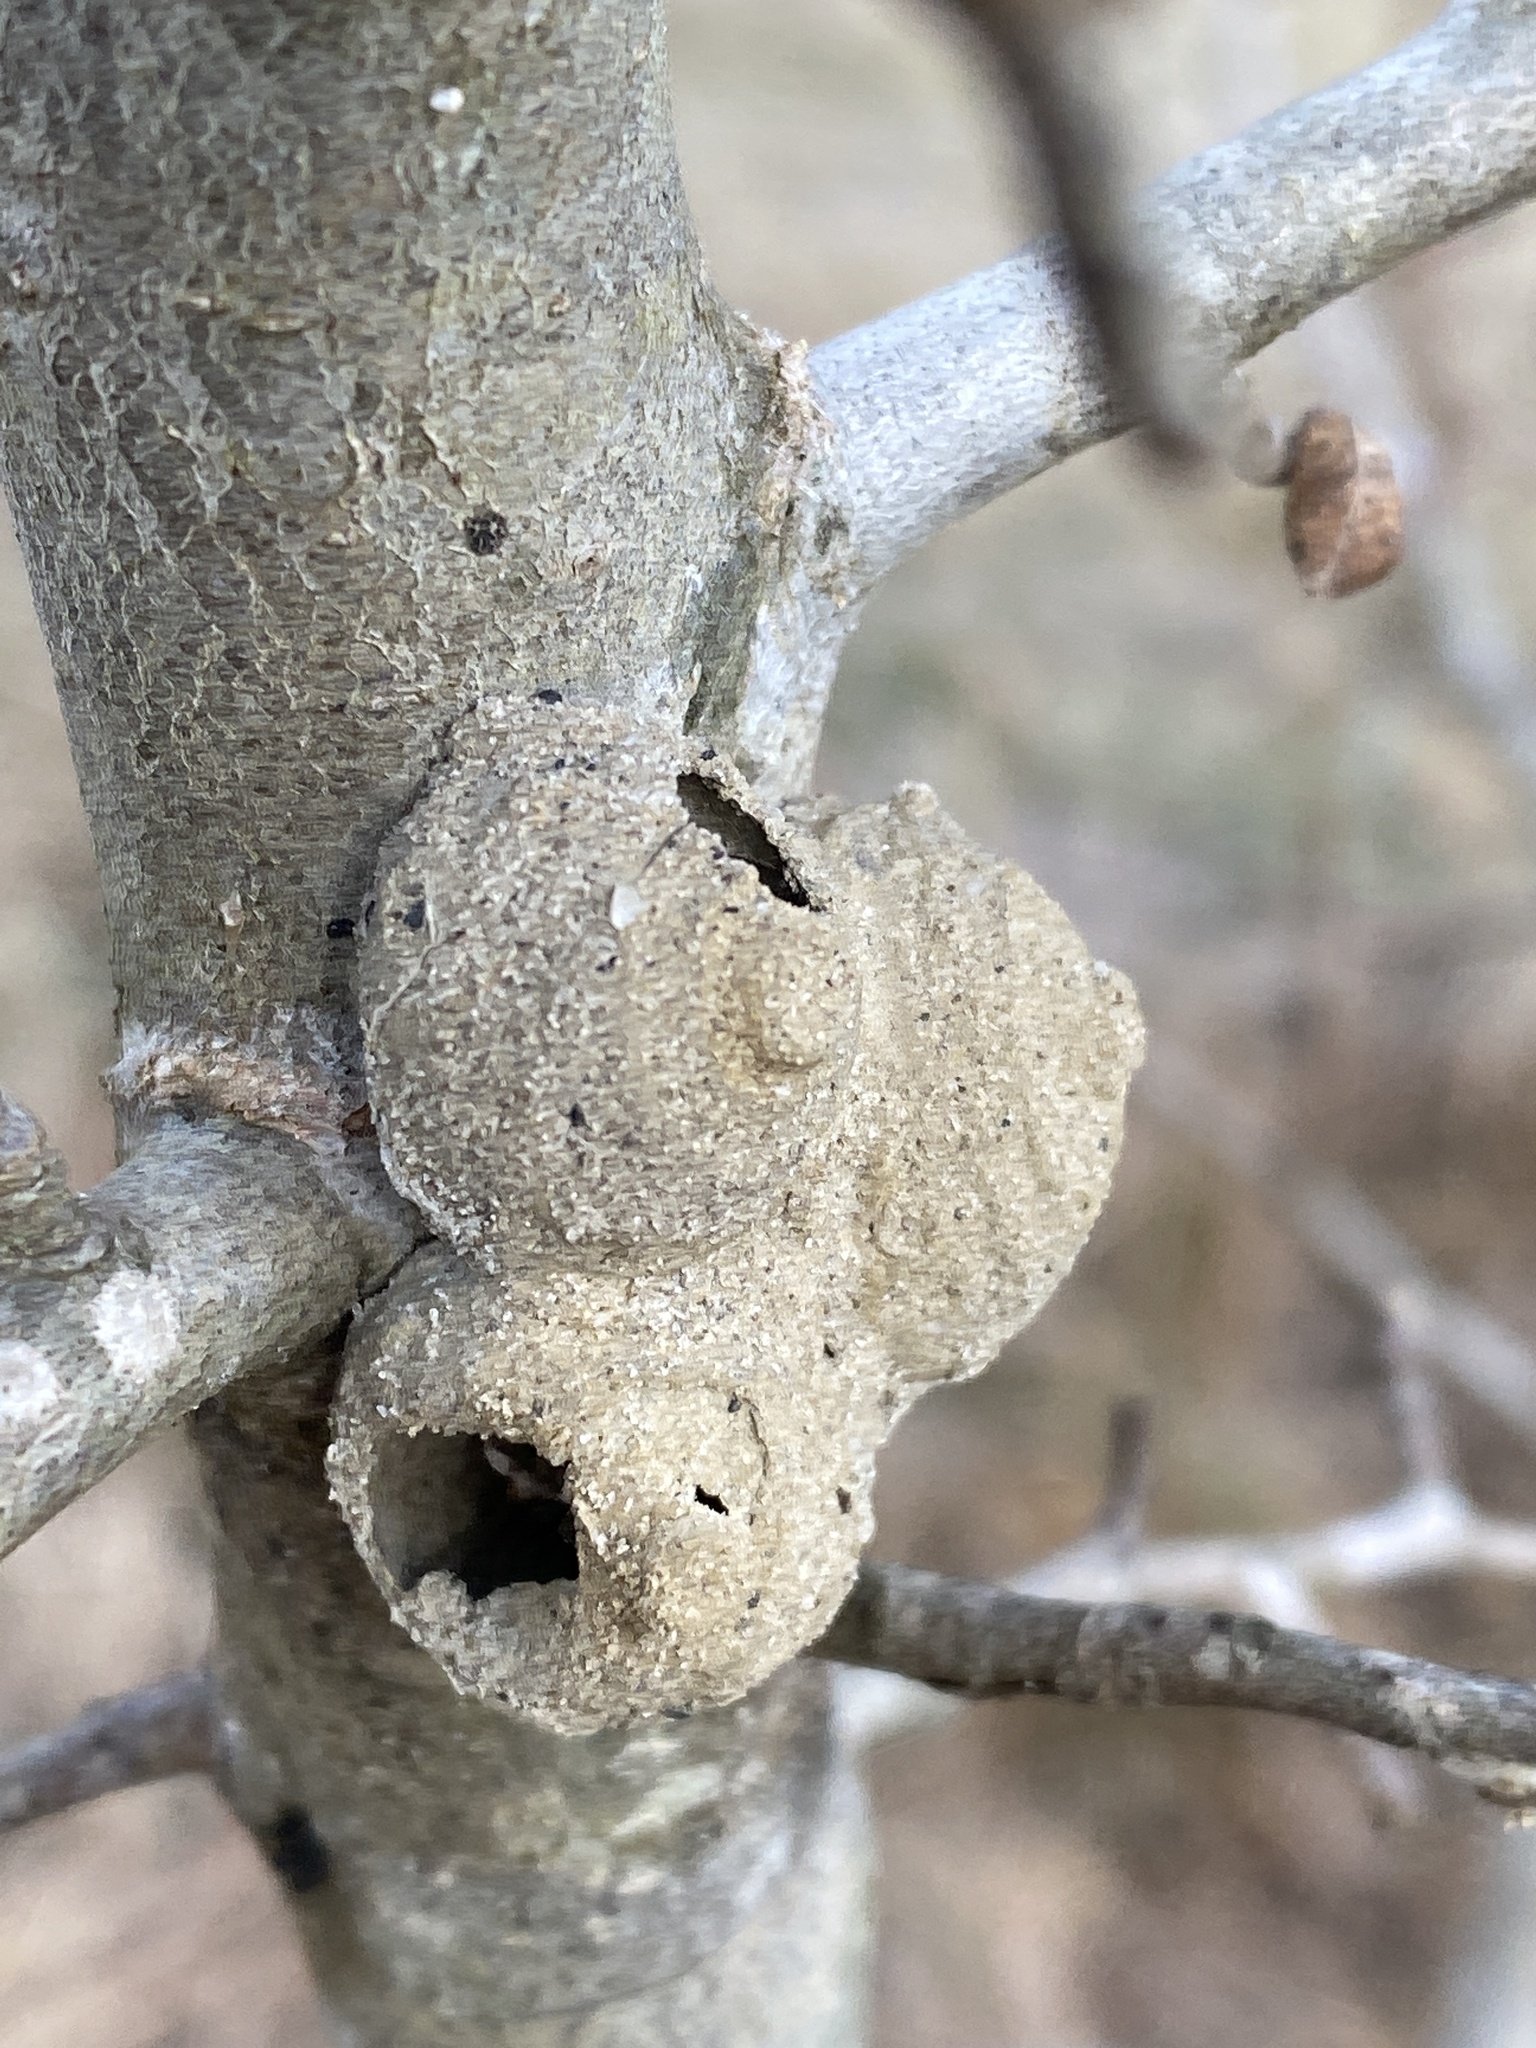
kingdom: Animalia
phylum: Arthropoda
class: Insecta
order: Hymenoptera
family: Vespidae
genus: Eumenes
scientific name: Eumenes fraternus
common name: Fraternal potter wasp
